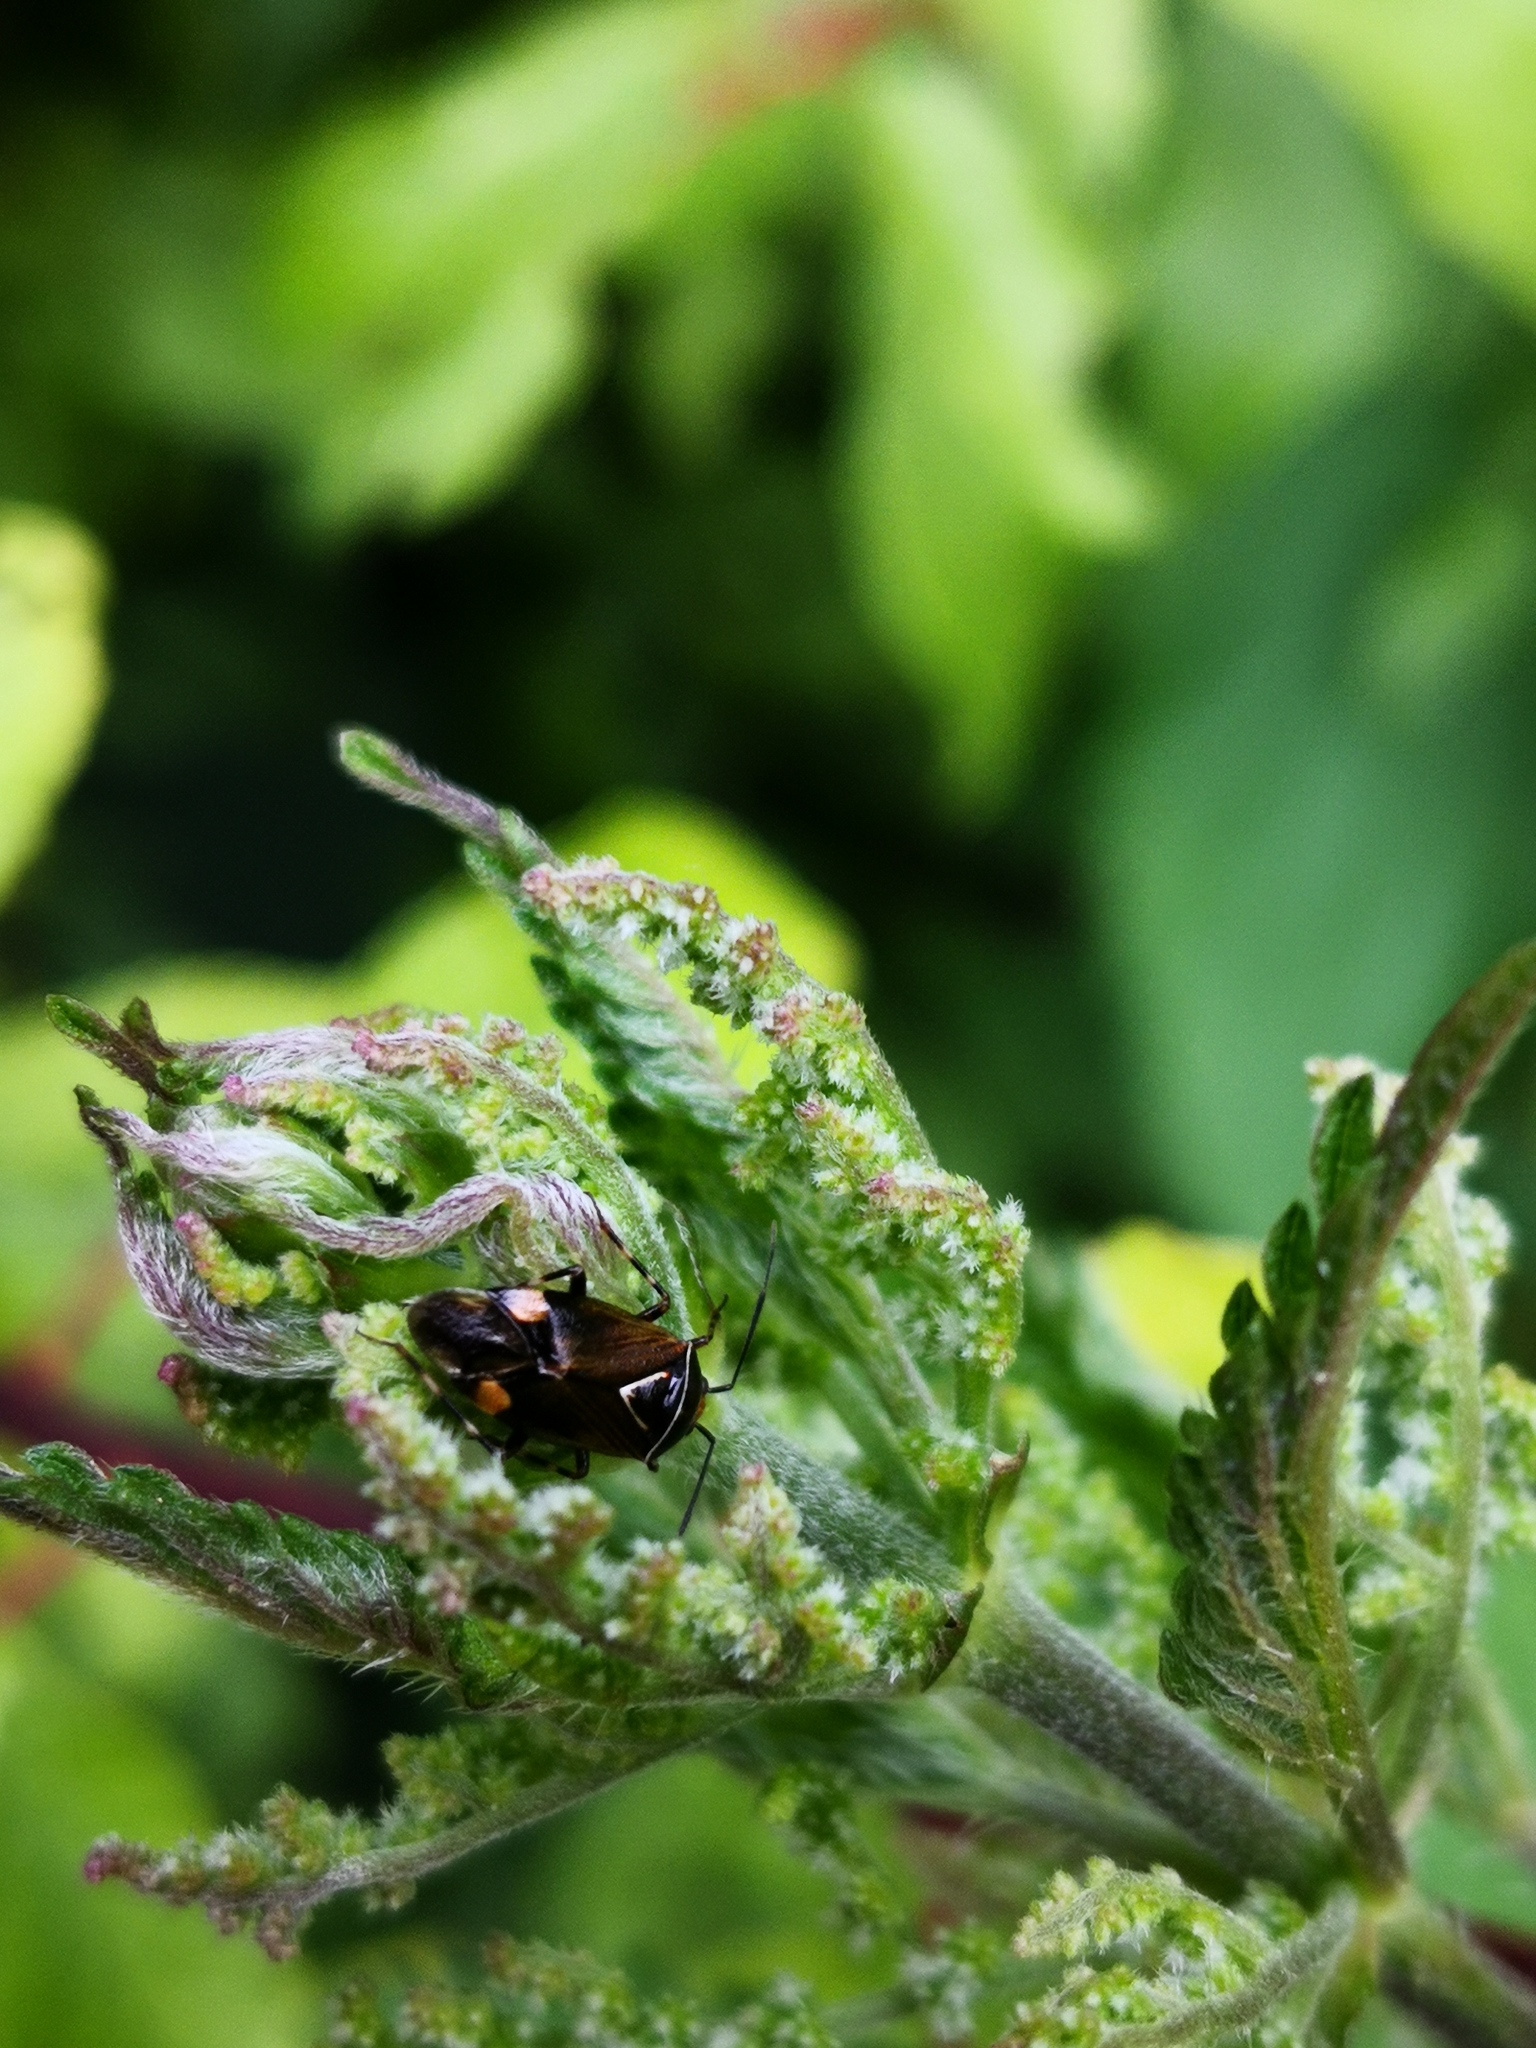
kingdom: Animalia
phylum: Arthropoda
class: Insecta
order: Hemiptera
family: Miridae
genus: Deraeocoris
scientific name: Deraeocoris flavilinea
